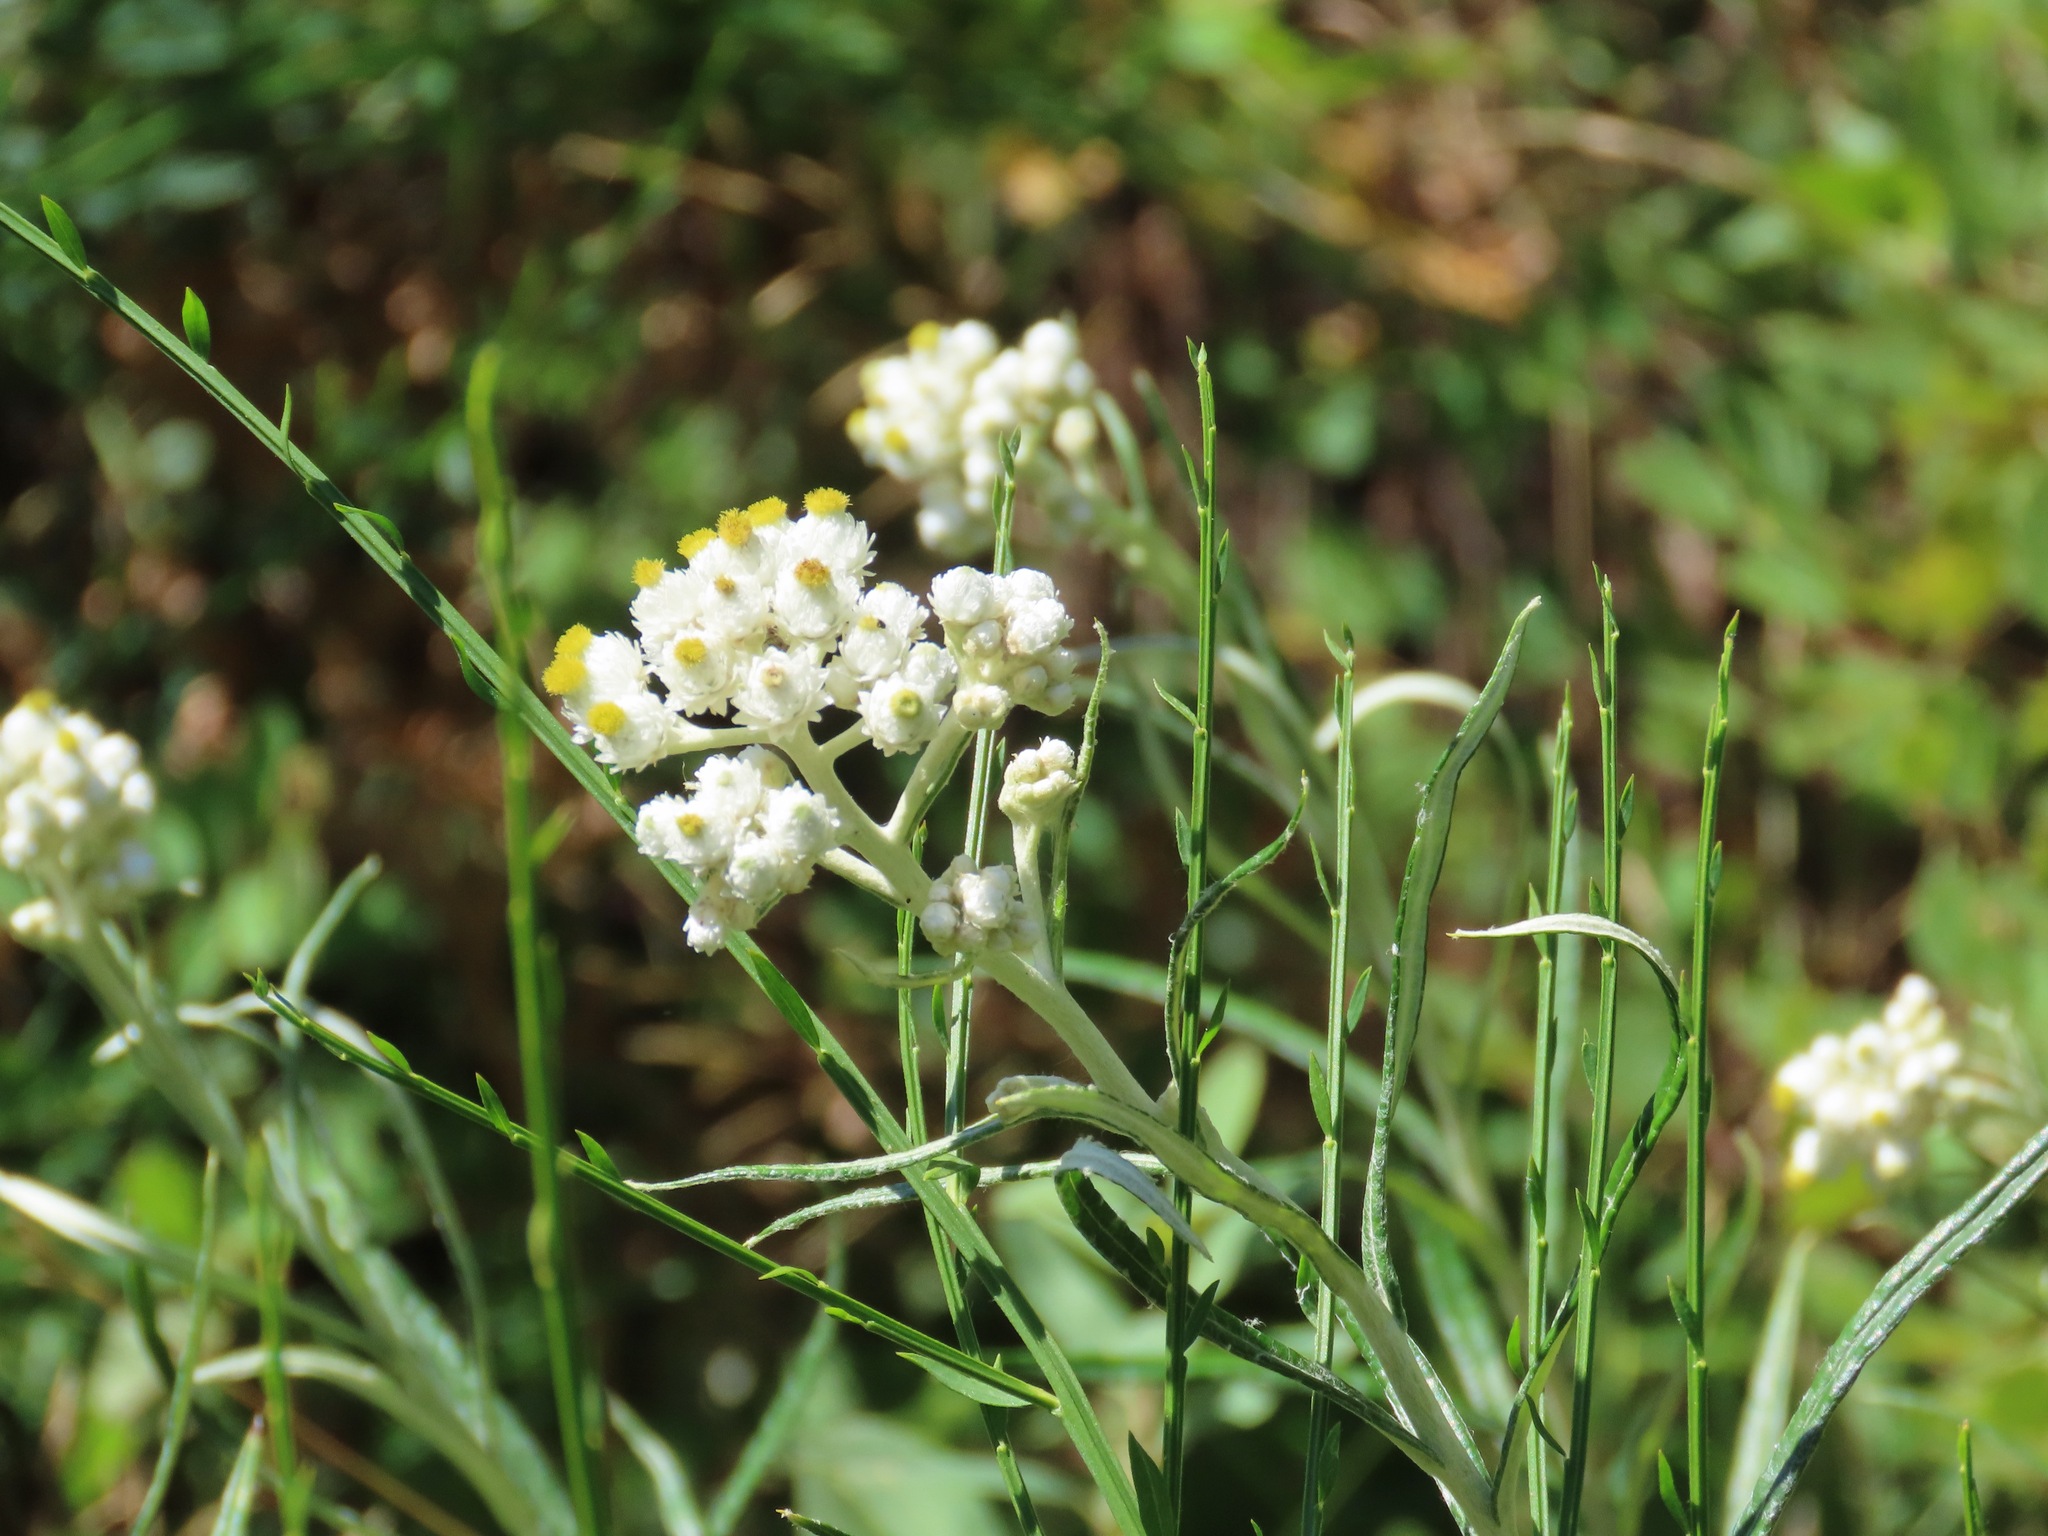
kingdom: Plantae
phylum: Tracheophyta
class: Magnoliopsida
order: Asterales
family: Asteraceae
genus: Anaphalis
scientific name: Anaphalis margaritacea
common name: Pearly everlasting
